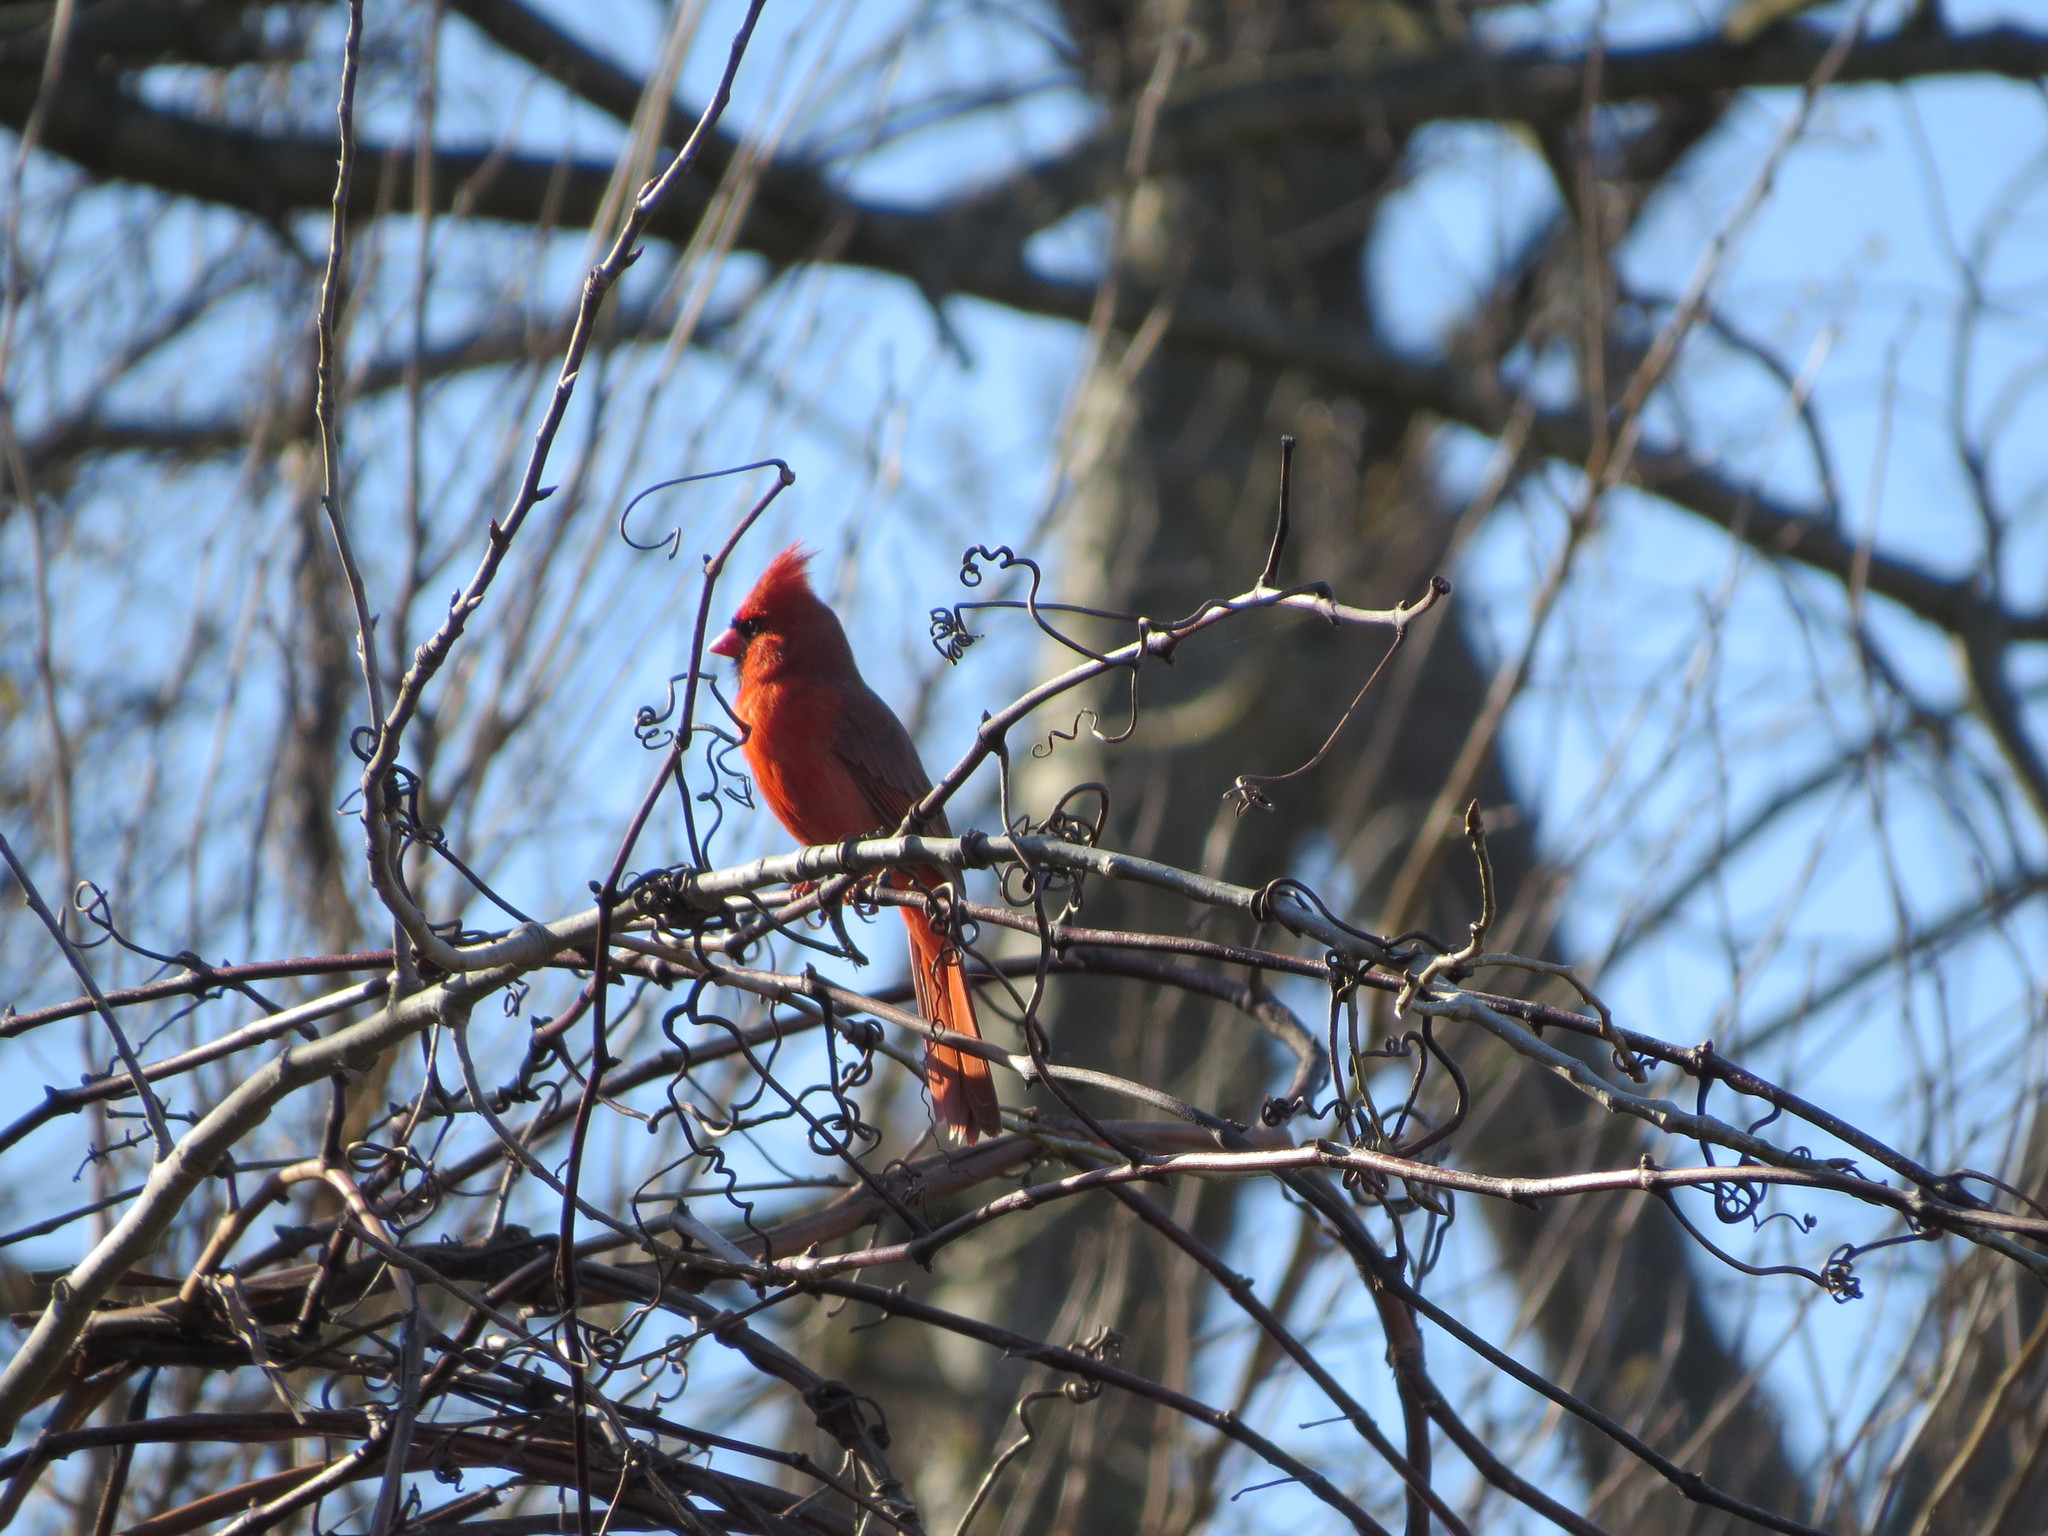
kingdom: Animalia
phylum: Chordata
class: Aves
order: Passeriformes
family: Cardinalidae
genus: Cardinalis
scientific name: Cardinalis cardinalis
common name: Northern cardinal
